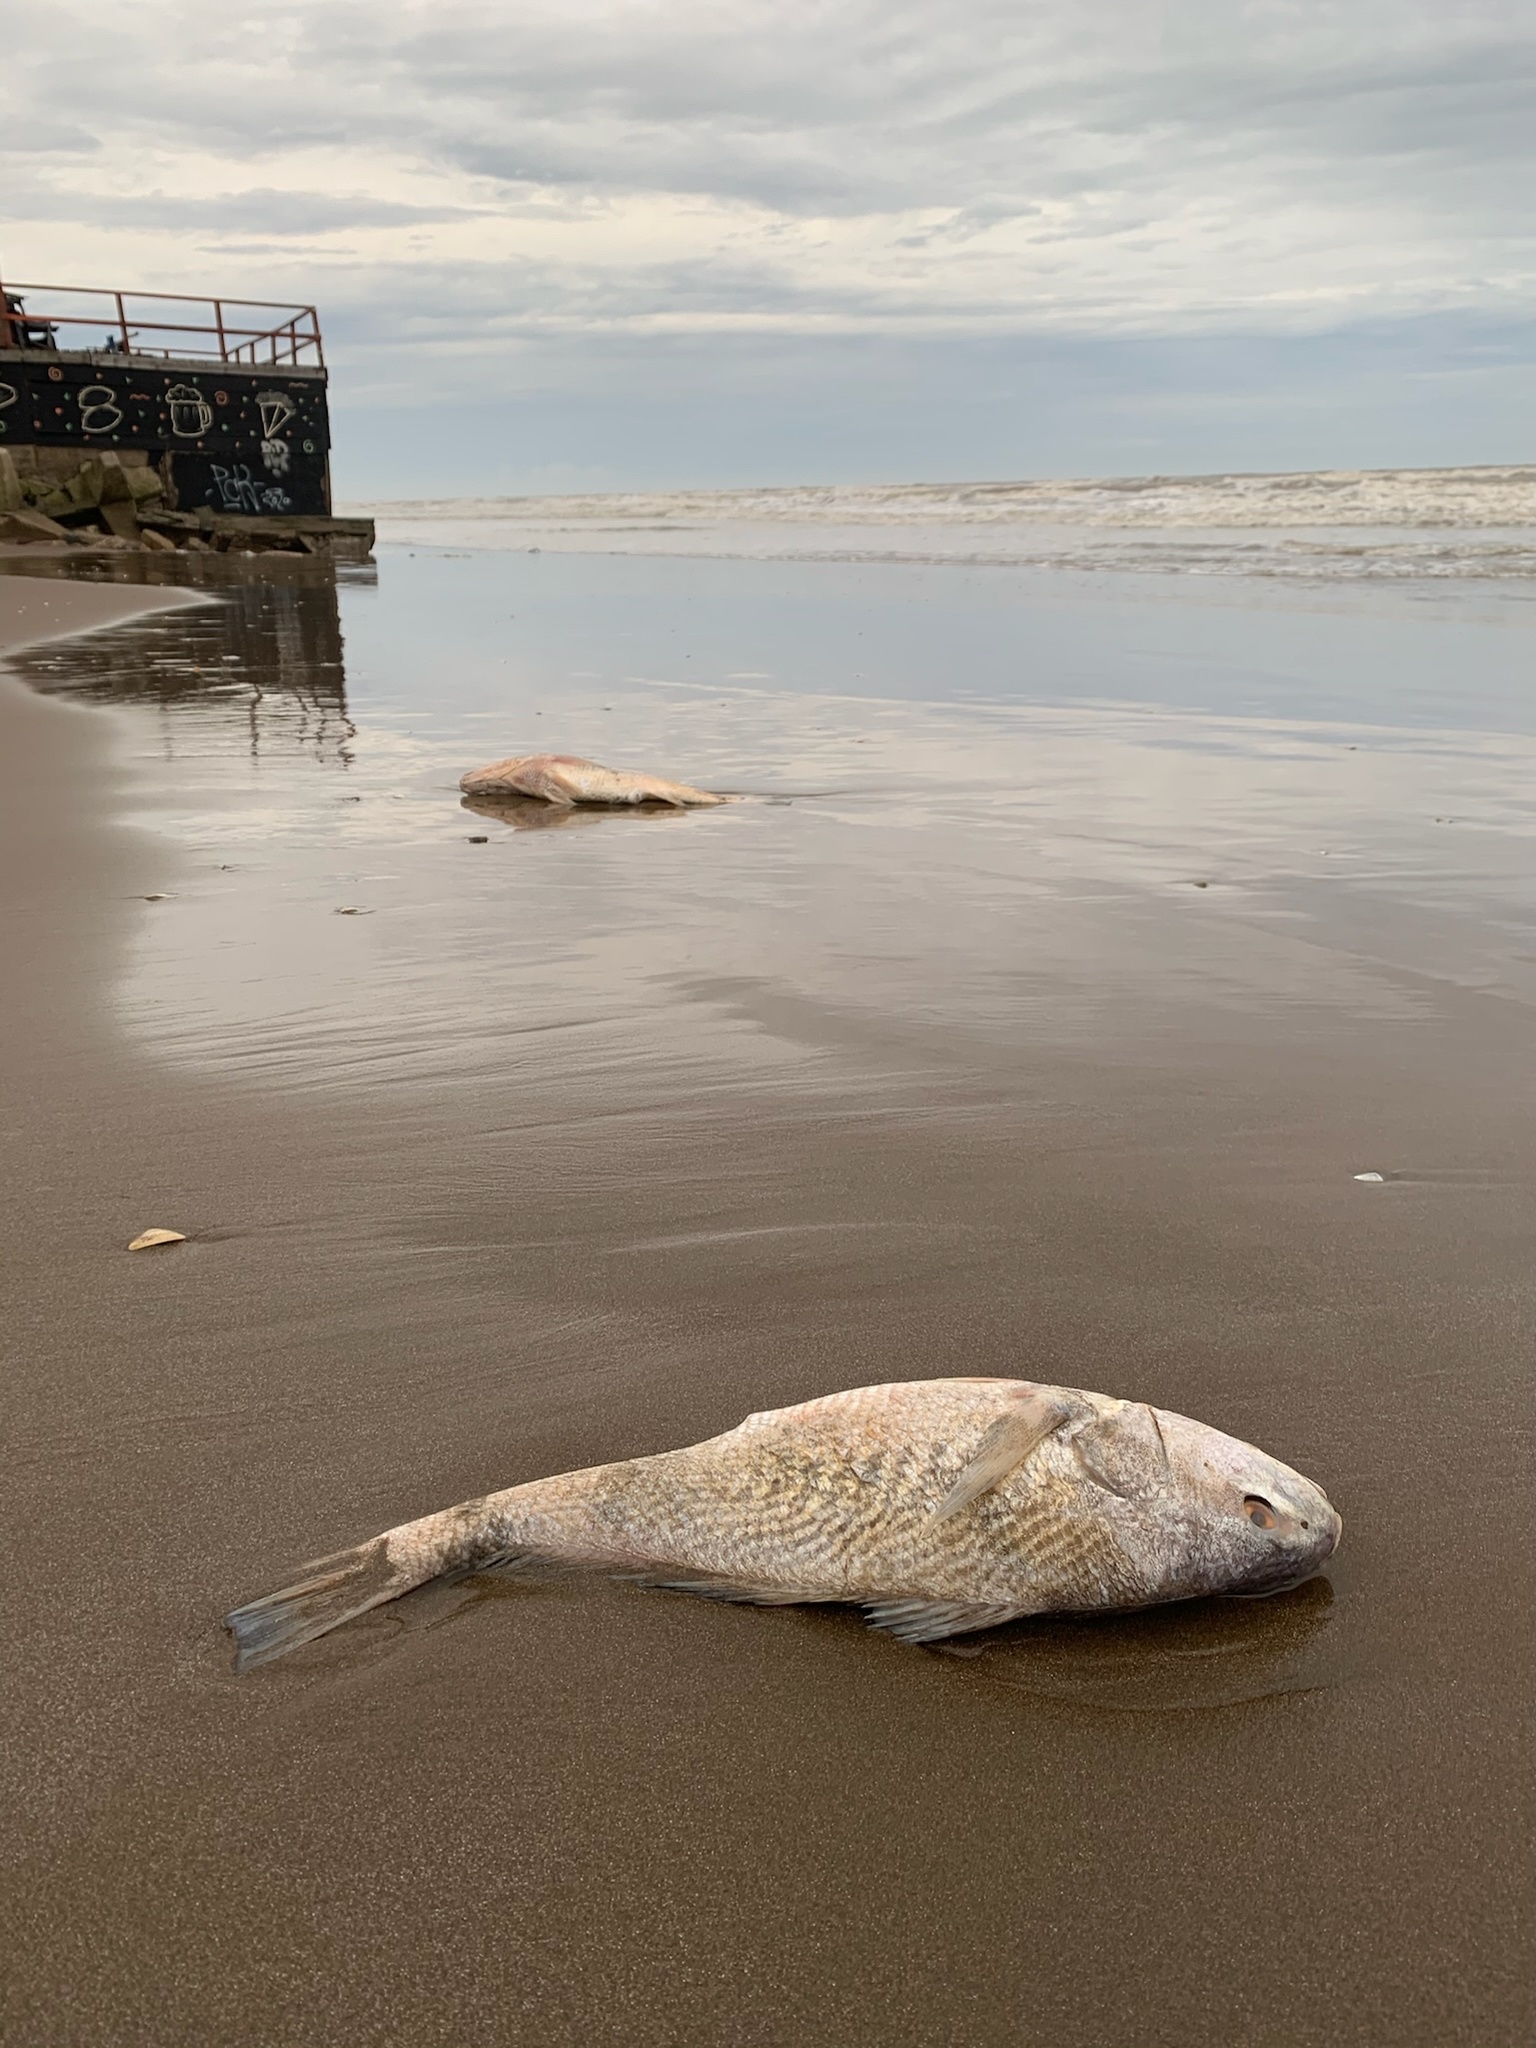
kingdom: Animalia
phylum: Chordata
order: Perciformes
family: Sciaenidae
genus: Micropogonias
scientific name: Micropogonias furnieri
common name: Whitemouth croaker
